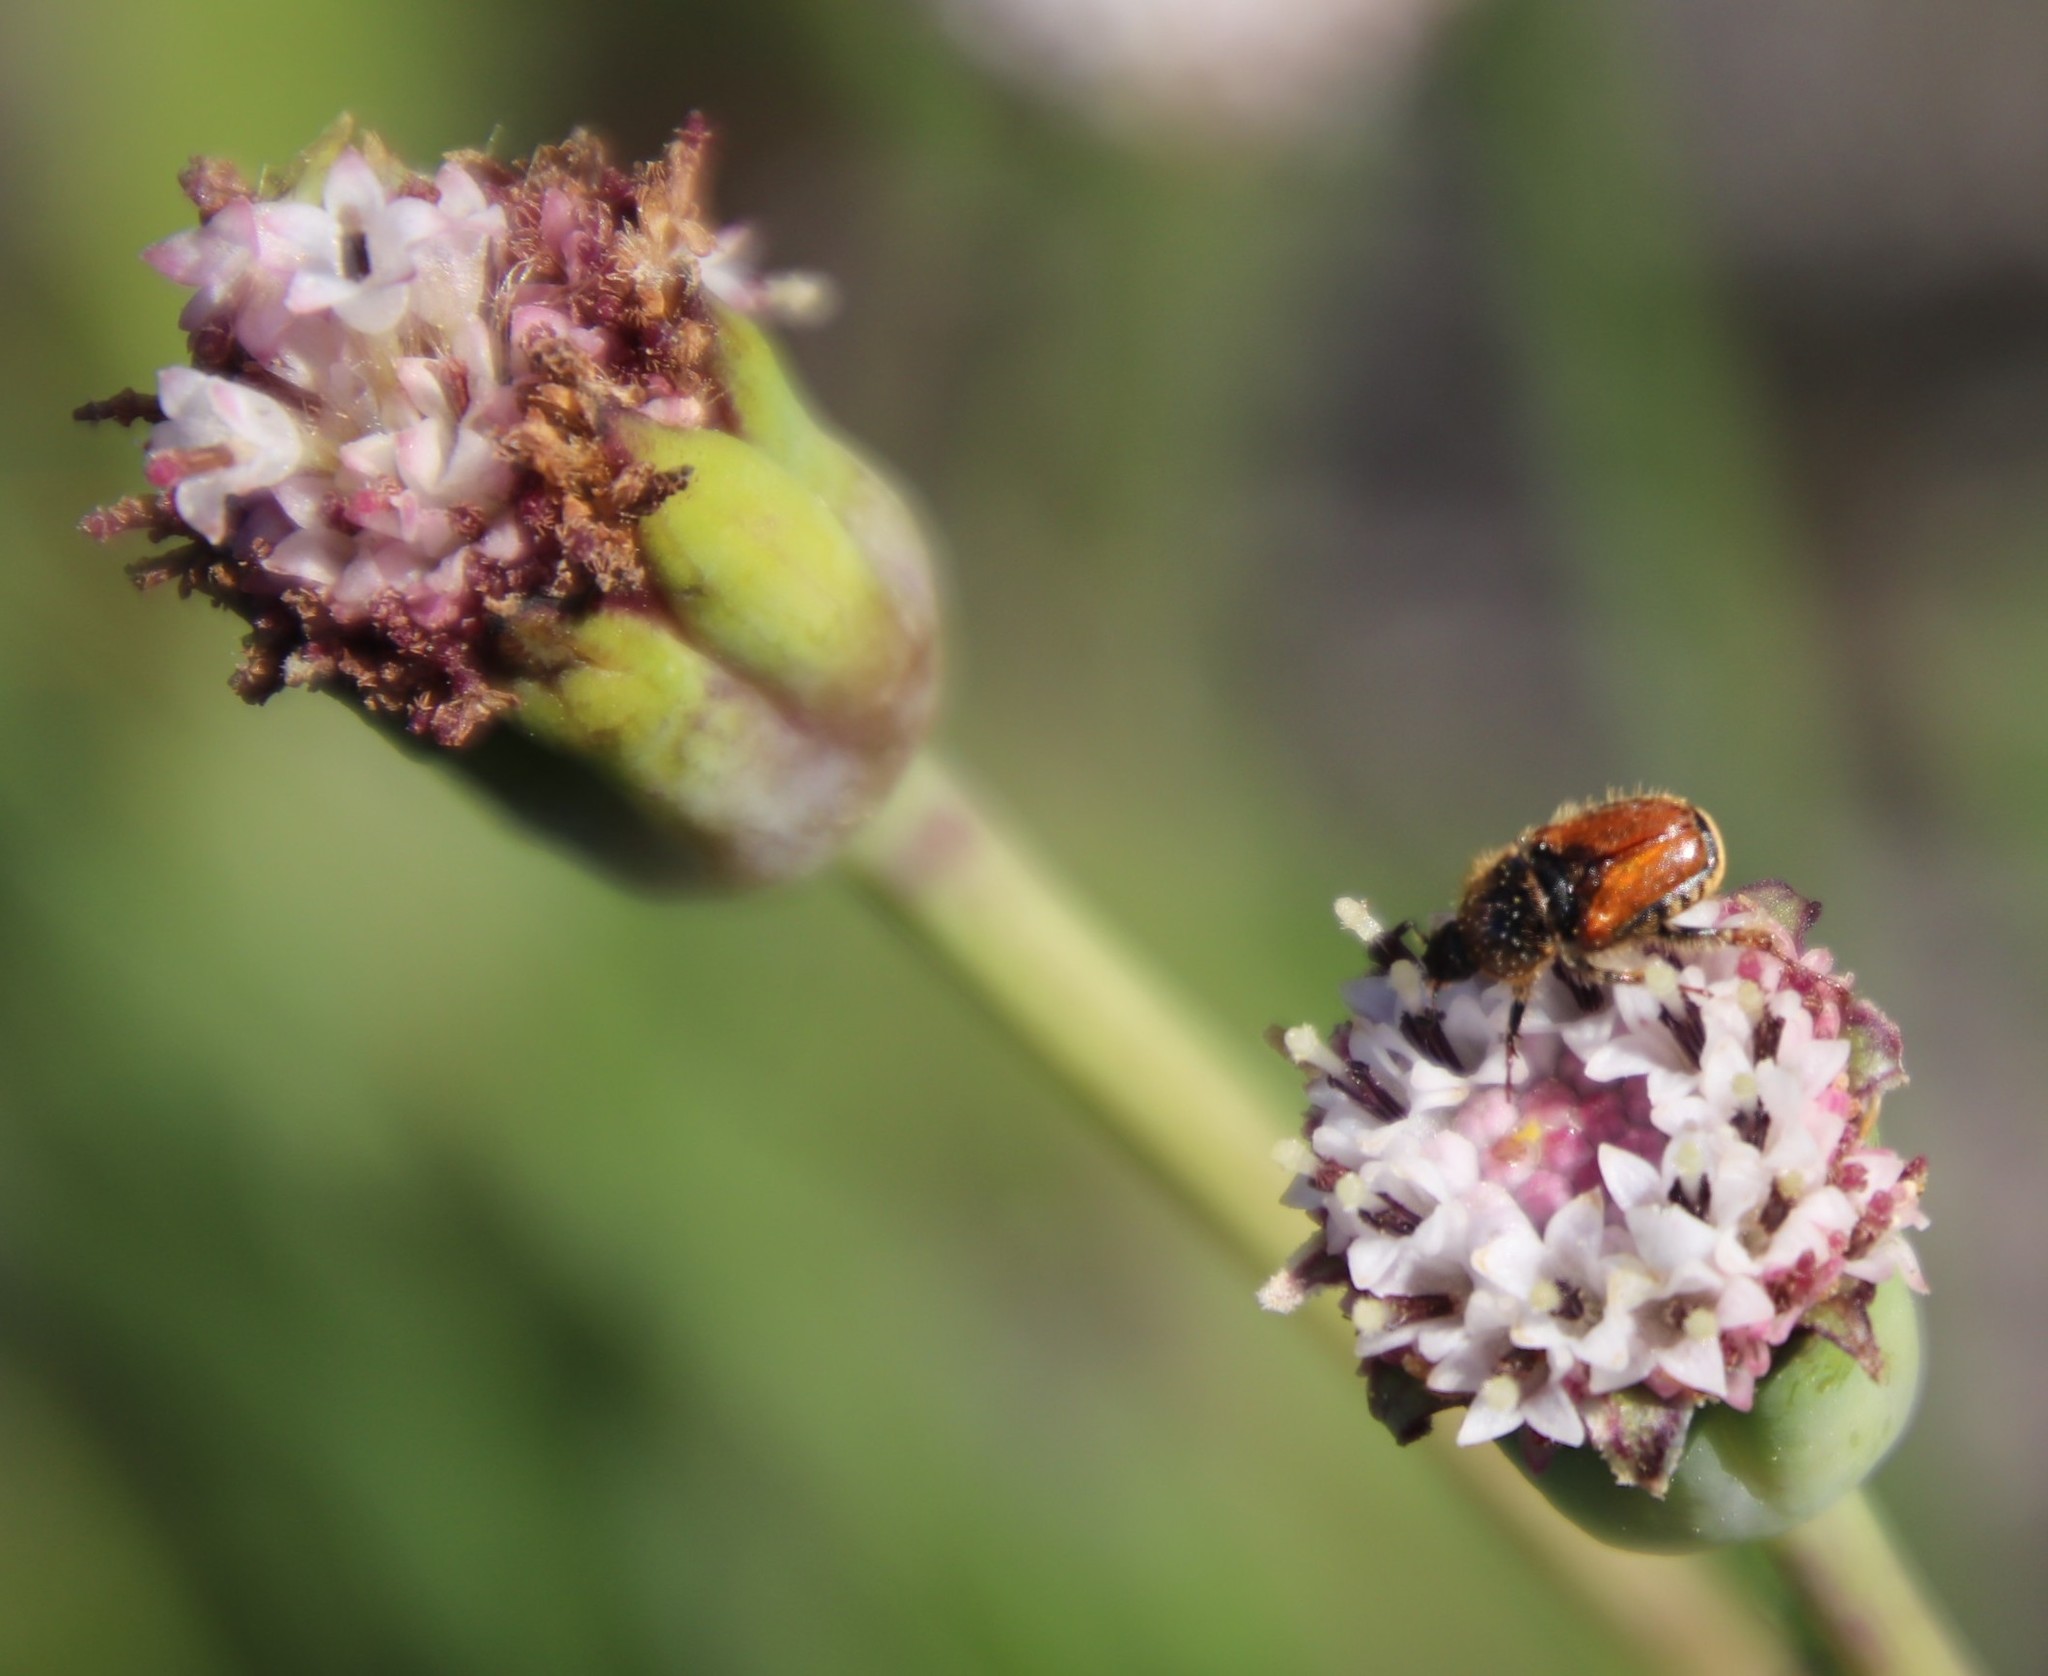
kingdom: Plantae
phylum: Tracheophyta
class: Magnoliopsida
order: Asterales
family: Asteraceae
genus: Othonna
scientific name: Othonna digitata
